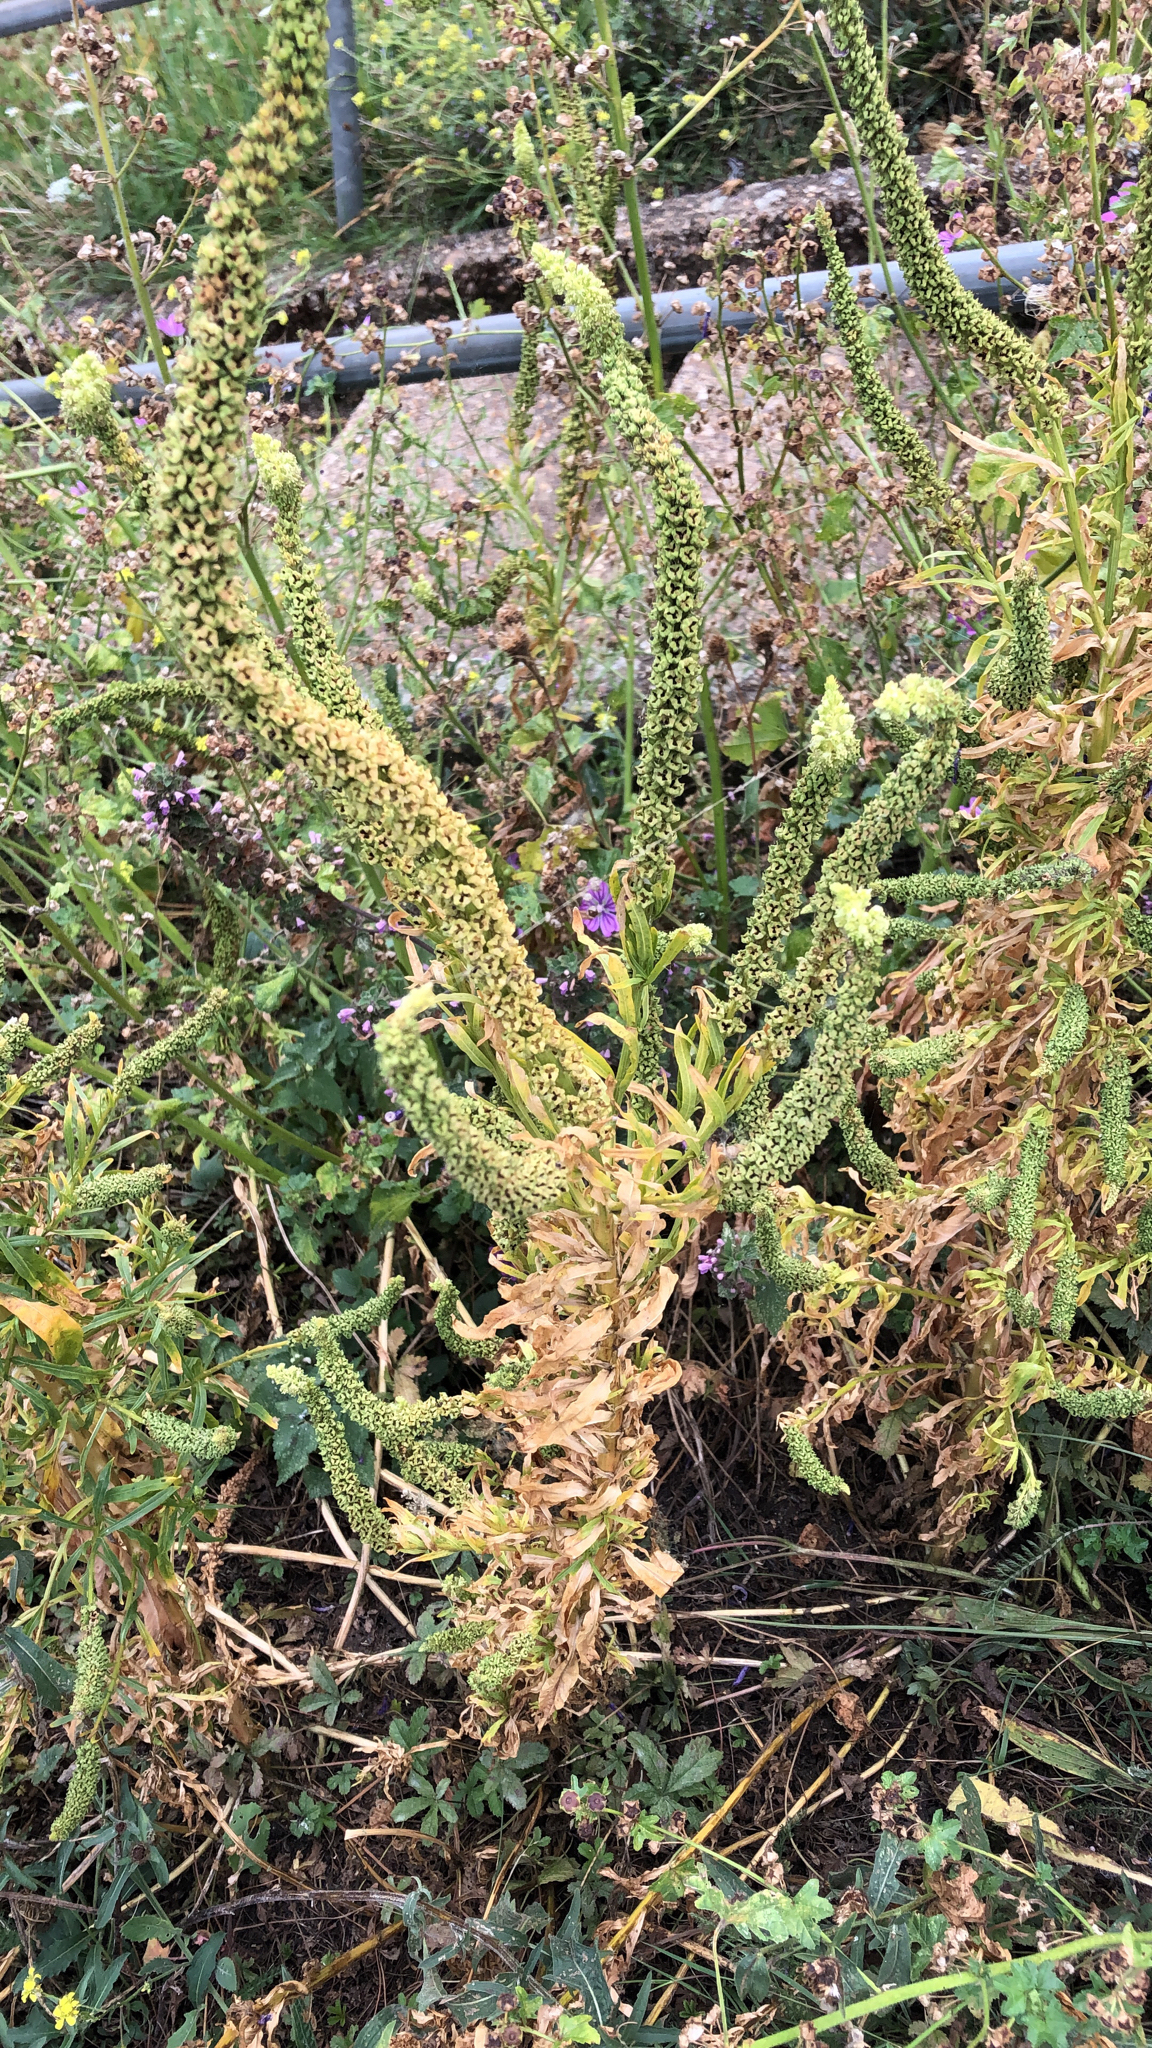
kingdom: Plantae
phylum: Tracheophyta
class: Magnoliopsida
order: Brassicales
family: Resedaceae
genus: Reseda
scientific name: Reseda luteola
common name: Weld
